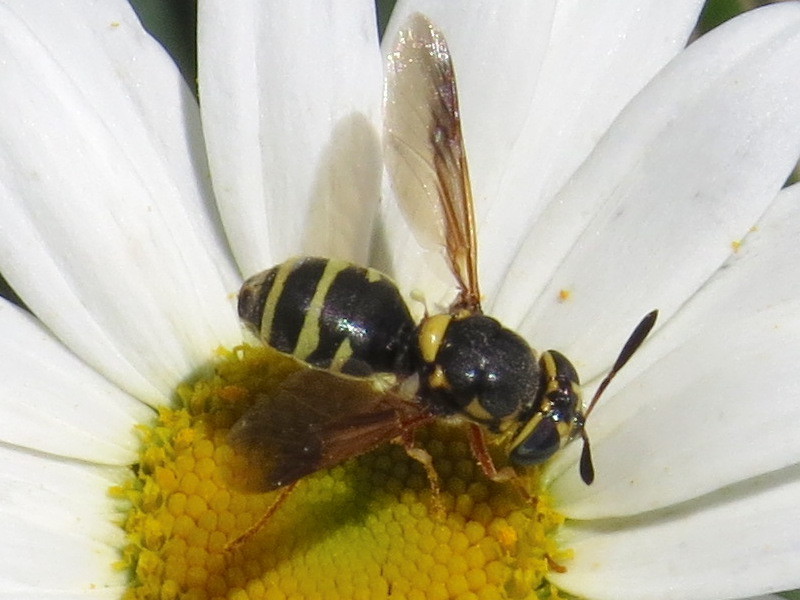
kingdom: Animalia
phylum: Arthropoda
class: Insecta
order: Diptera
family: Stratiomyidae
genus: Hoplitimyia
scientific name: Hoplitimyia constans
